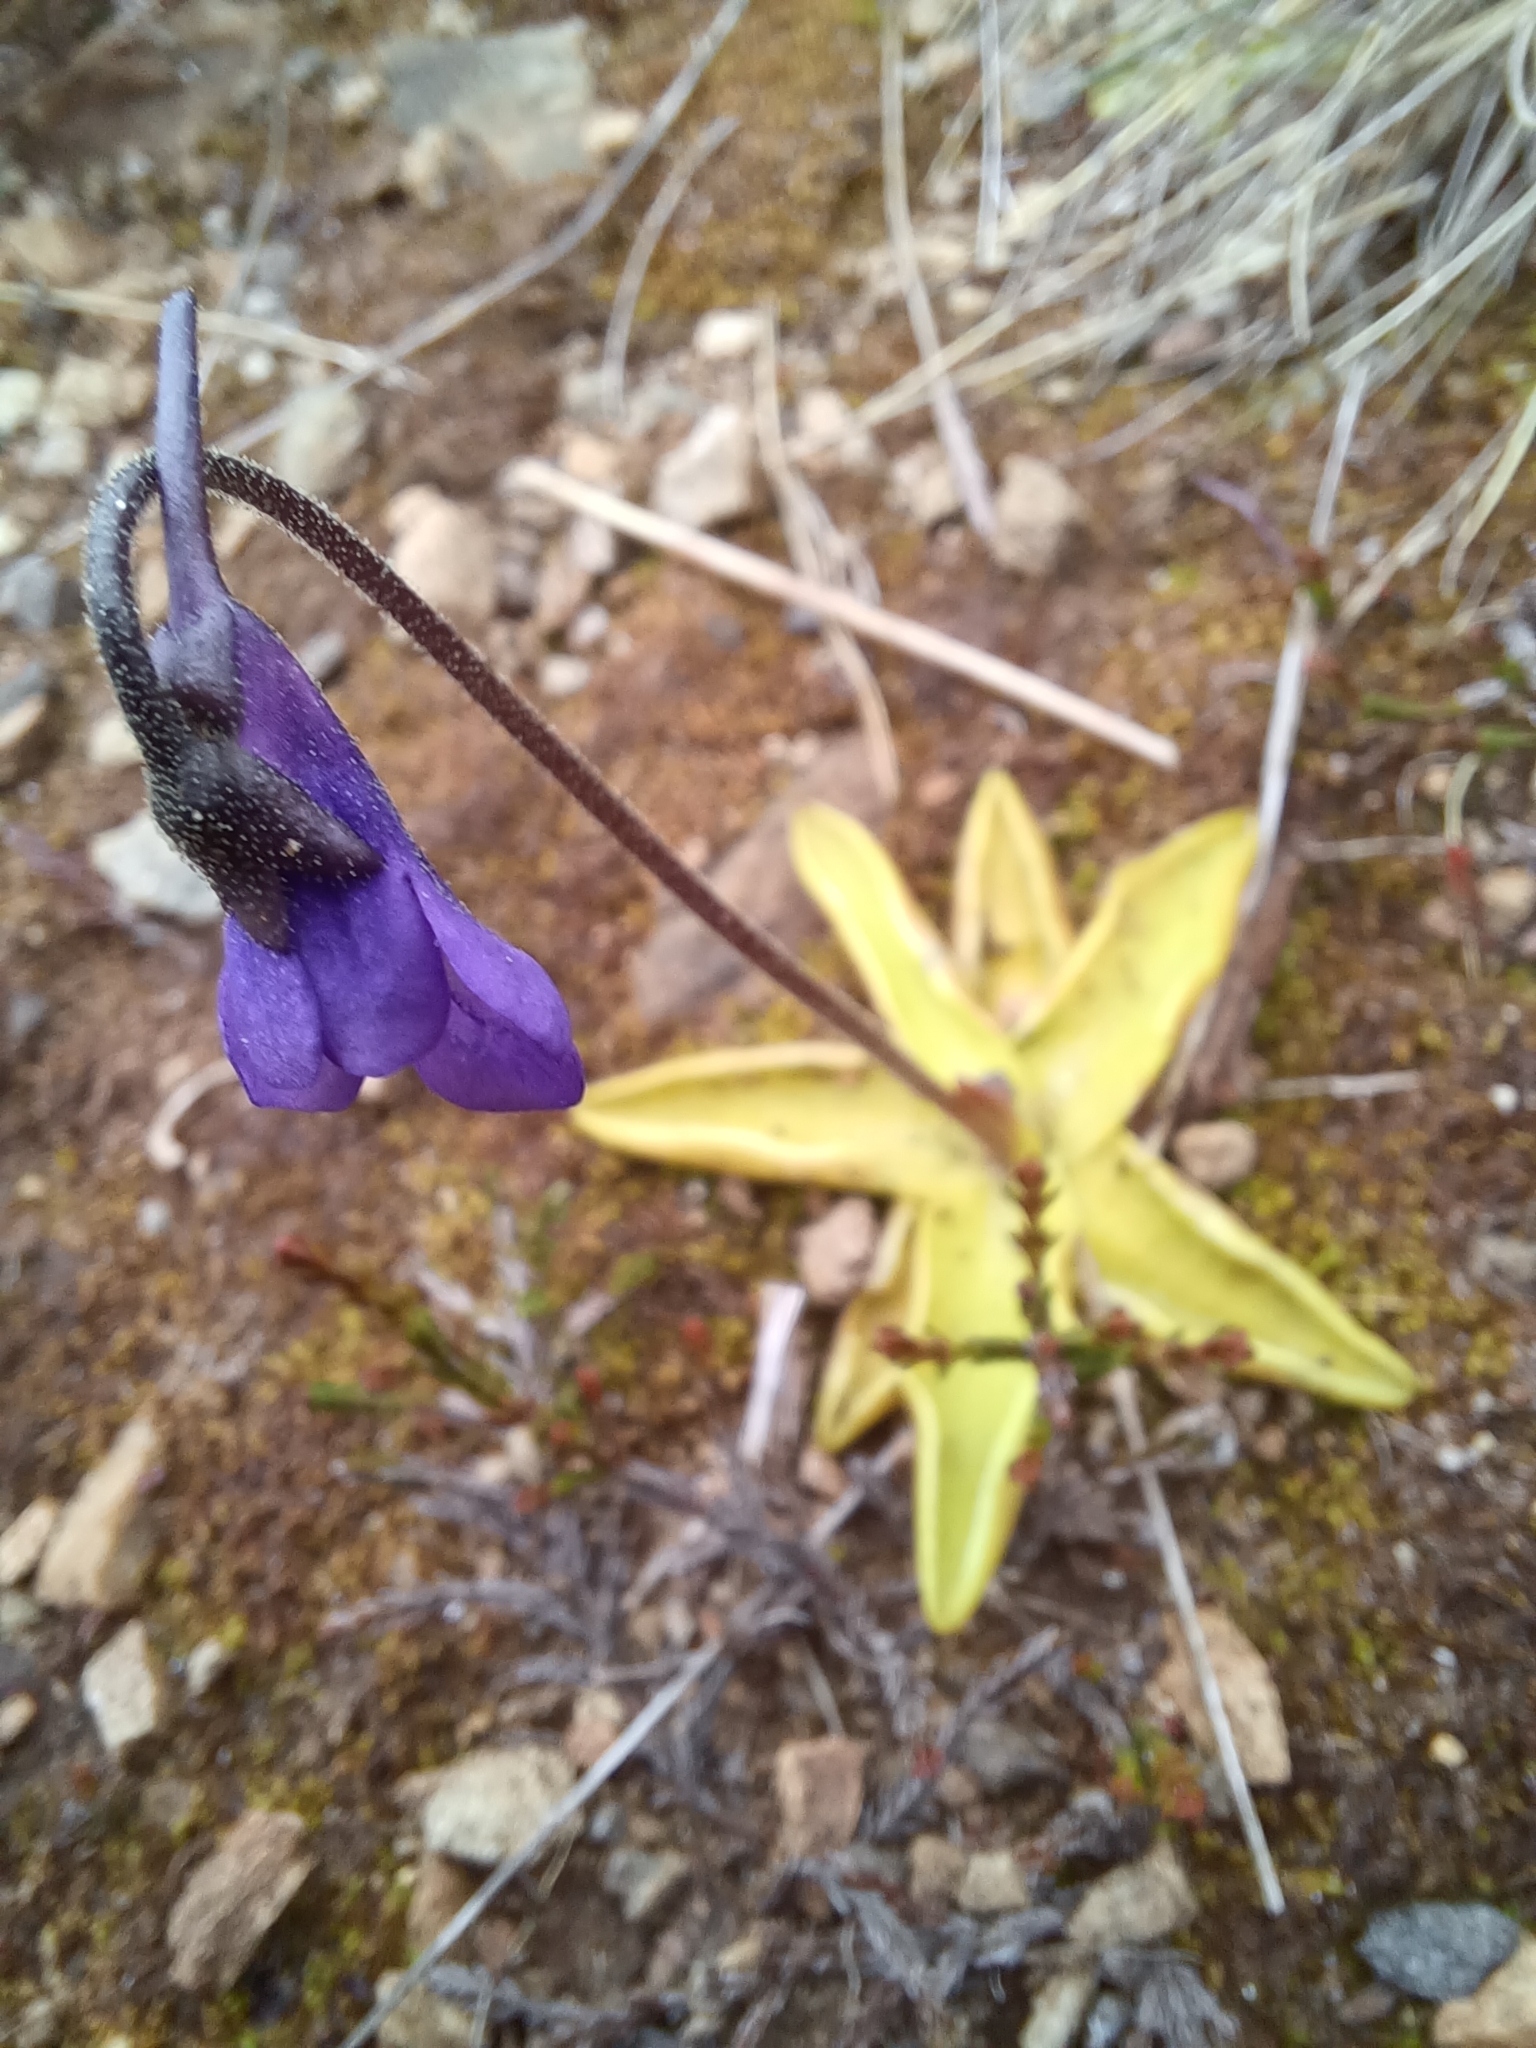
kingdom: Plantae
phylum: Tracheophyta
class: Magnoliopsida
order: Lamiales
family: Lentibulariaceae
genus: Pinguicula
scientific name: Pinguicula vulgaris
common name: Common butterwort
